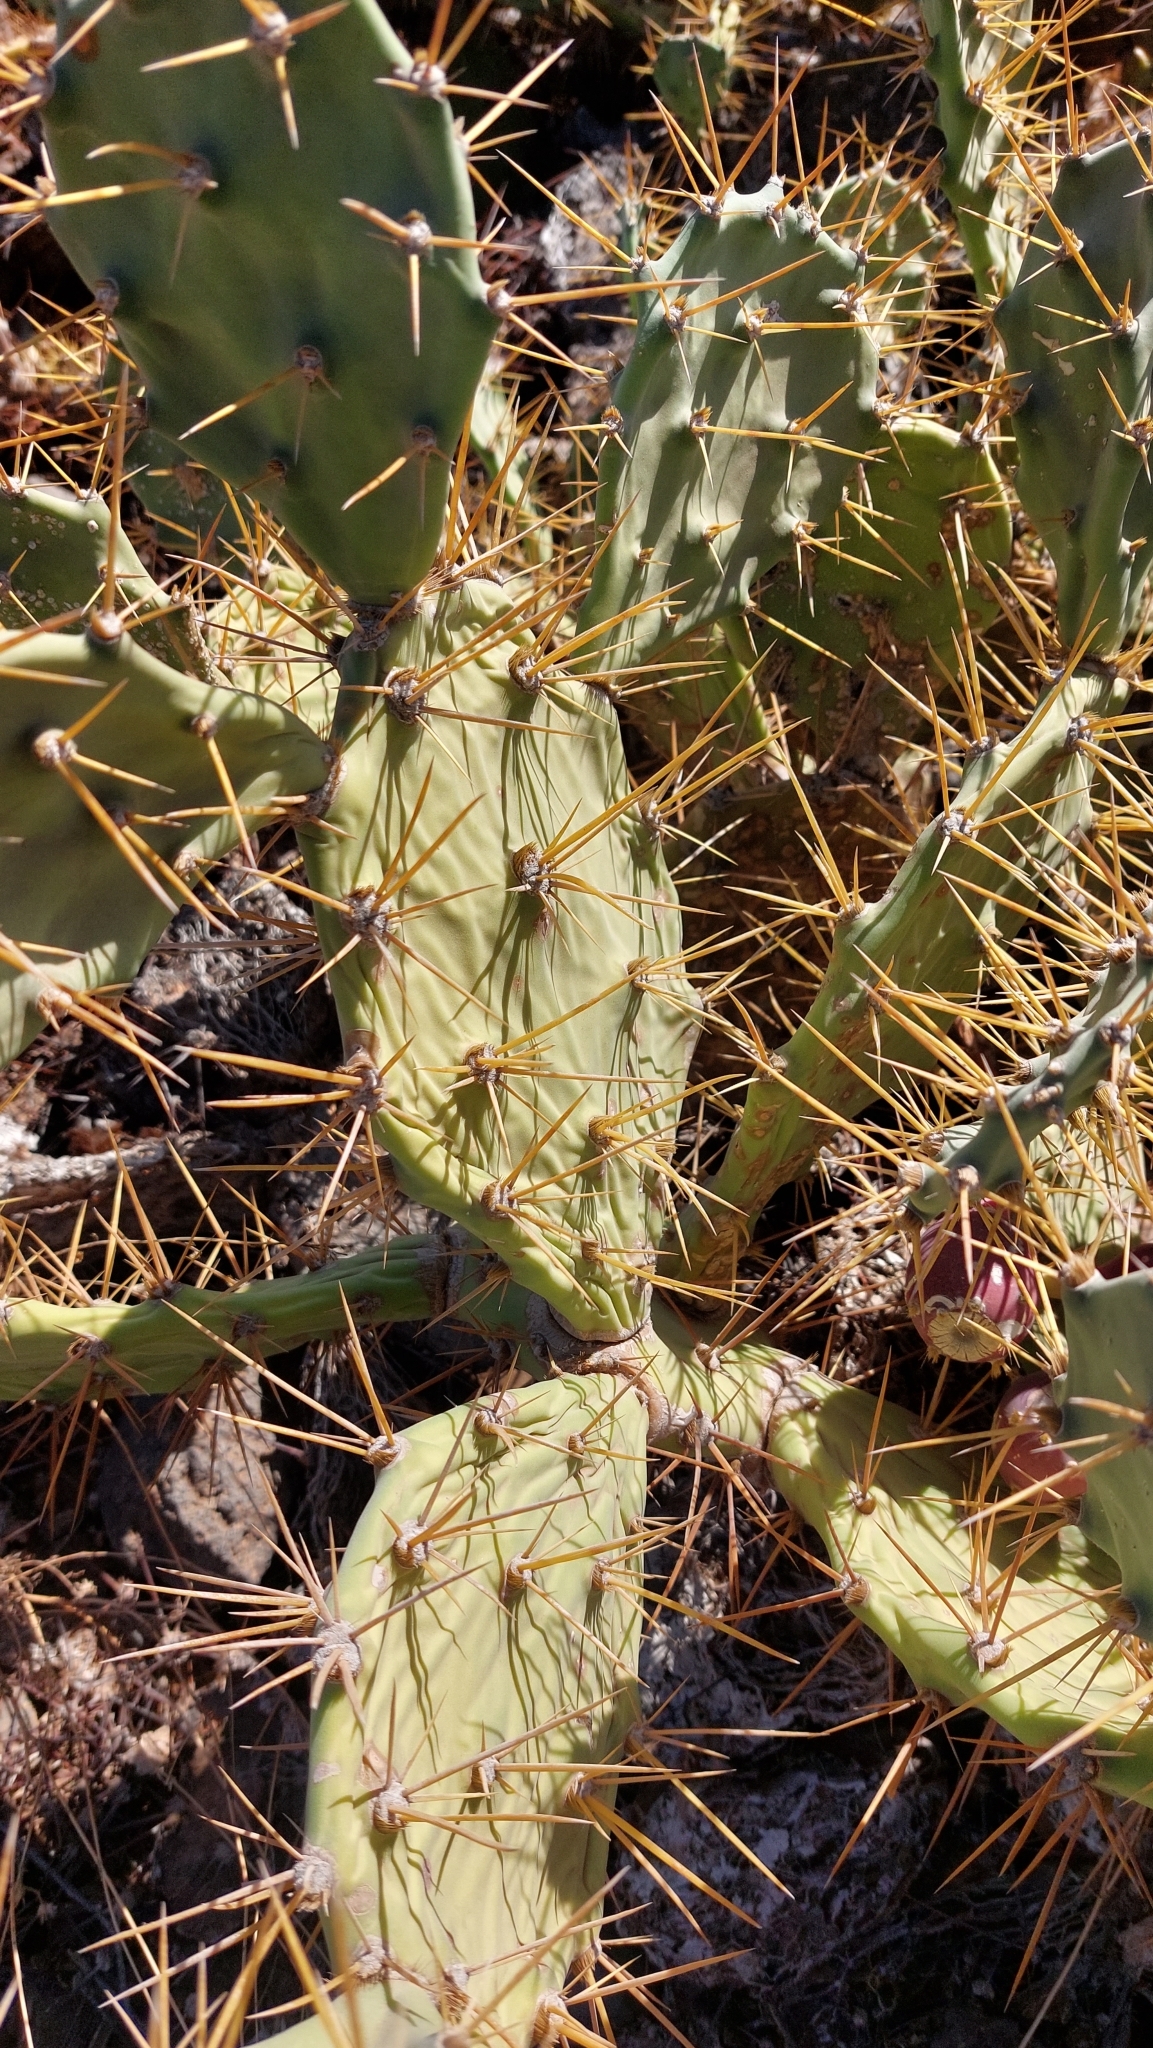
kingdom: Plantae
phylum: Tracheophyta
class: Magnoliopsida
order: Caryophyllales
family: Cactaceae
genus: Opuntia
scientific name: Opuntia stricta
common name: Erect pricklypear
